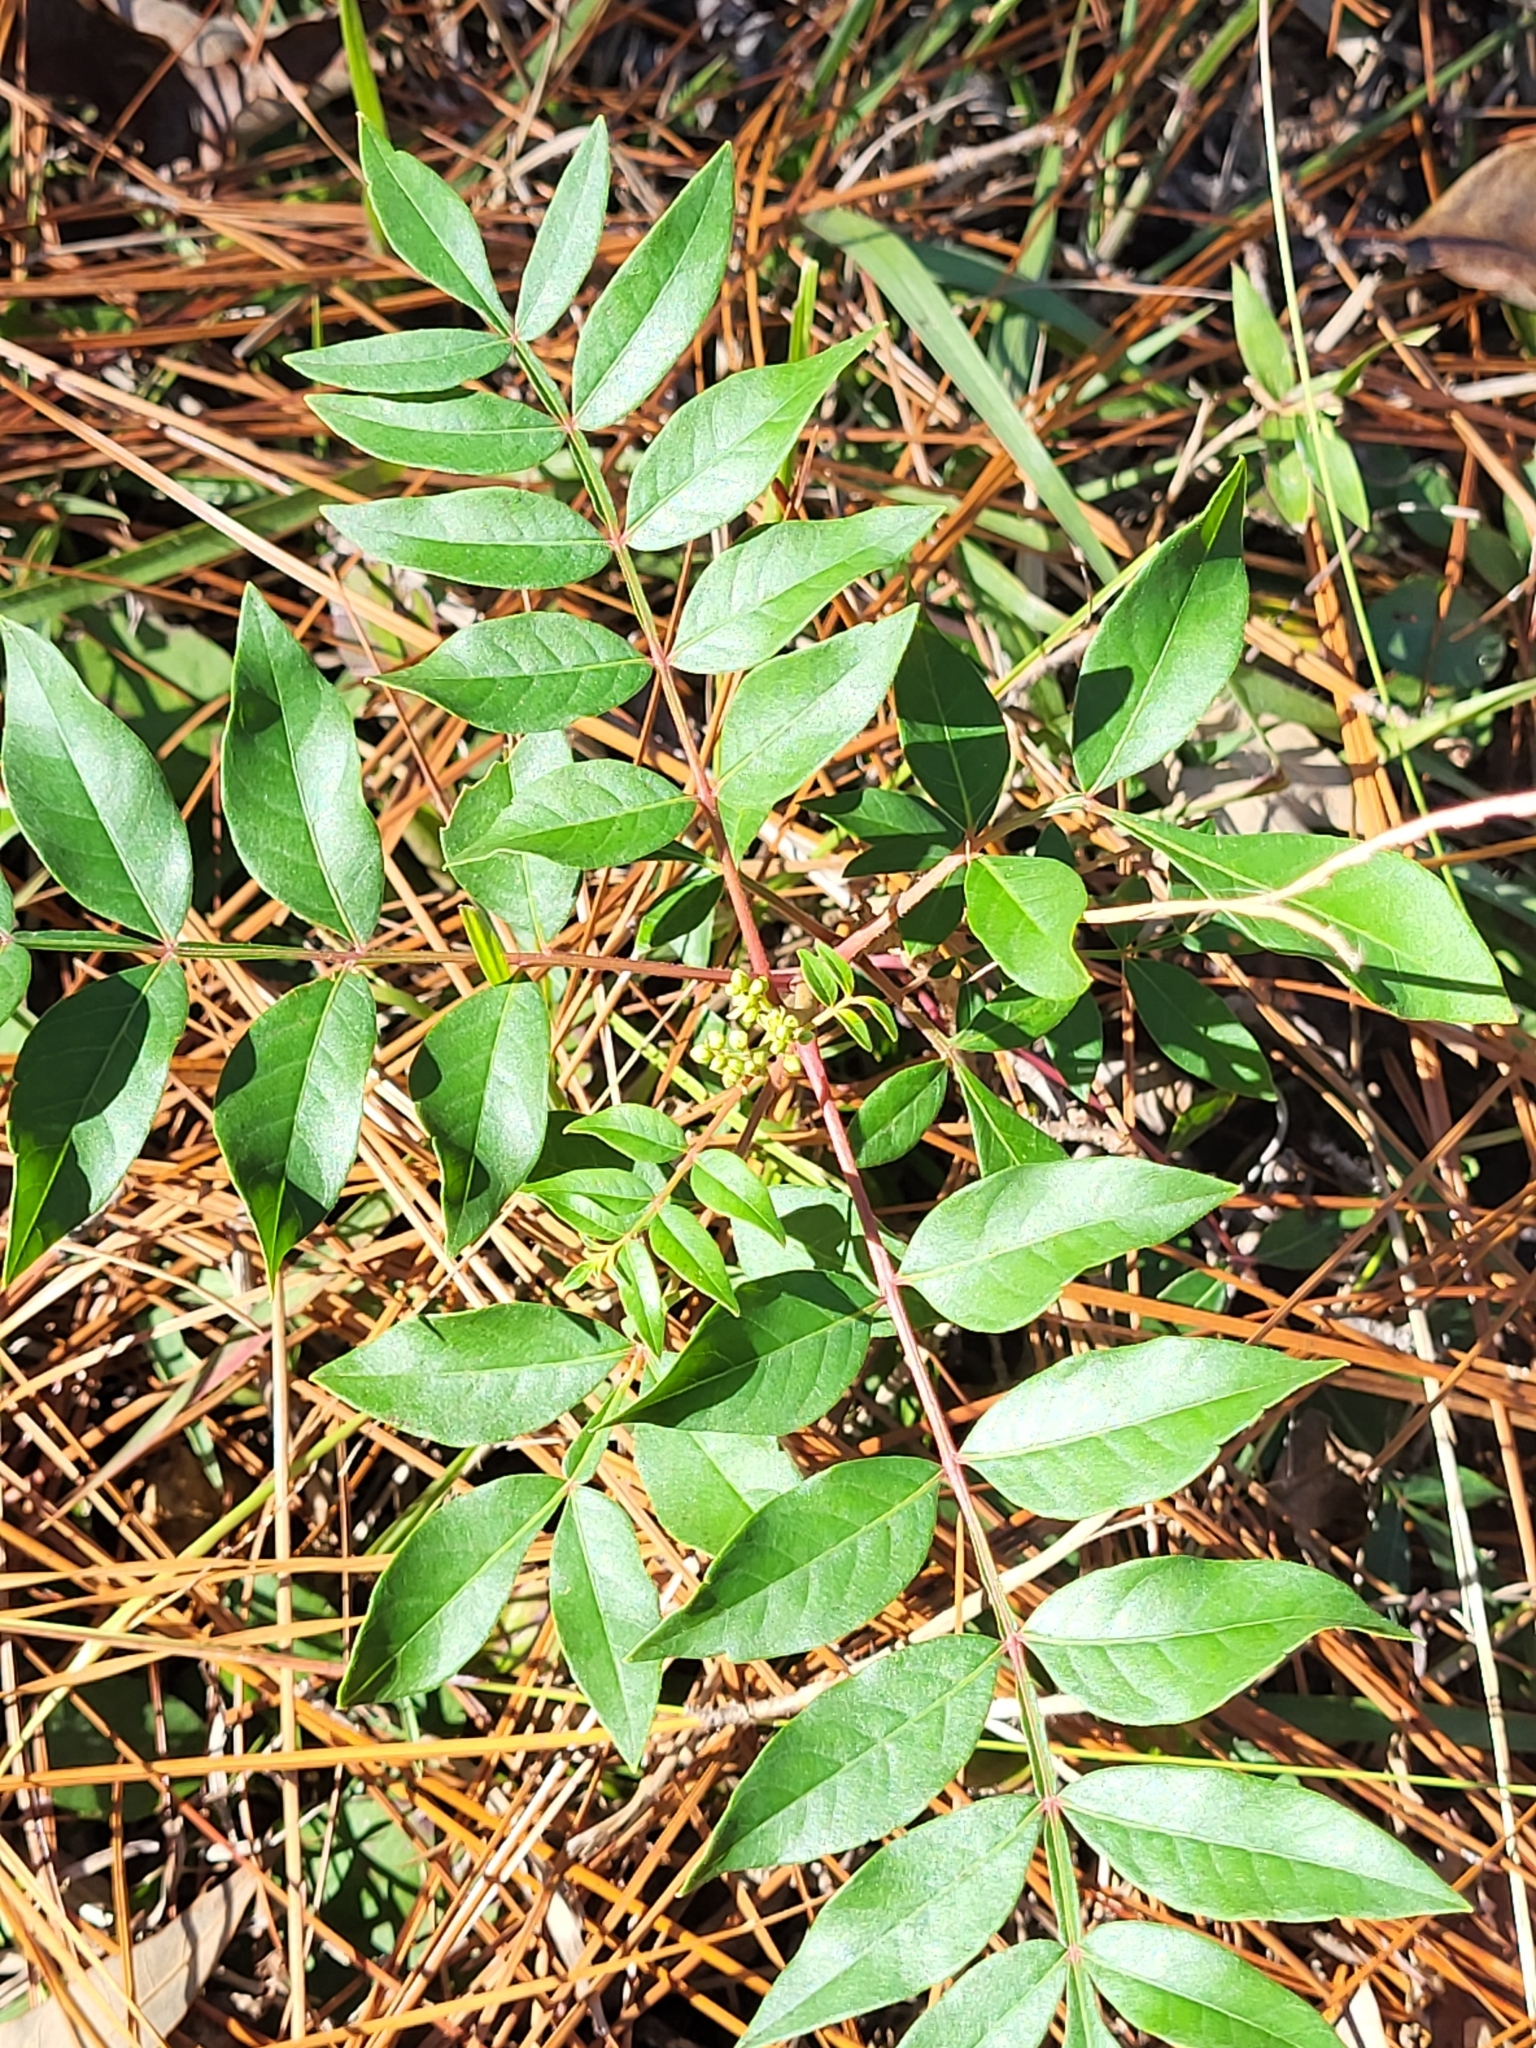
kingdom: Plantae
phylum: Tracheophyta
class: Magnoliopsida
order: Sapindales
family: Anacardiaceae
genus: Rhus
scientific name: Rhus copallina
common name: Shining sumac
